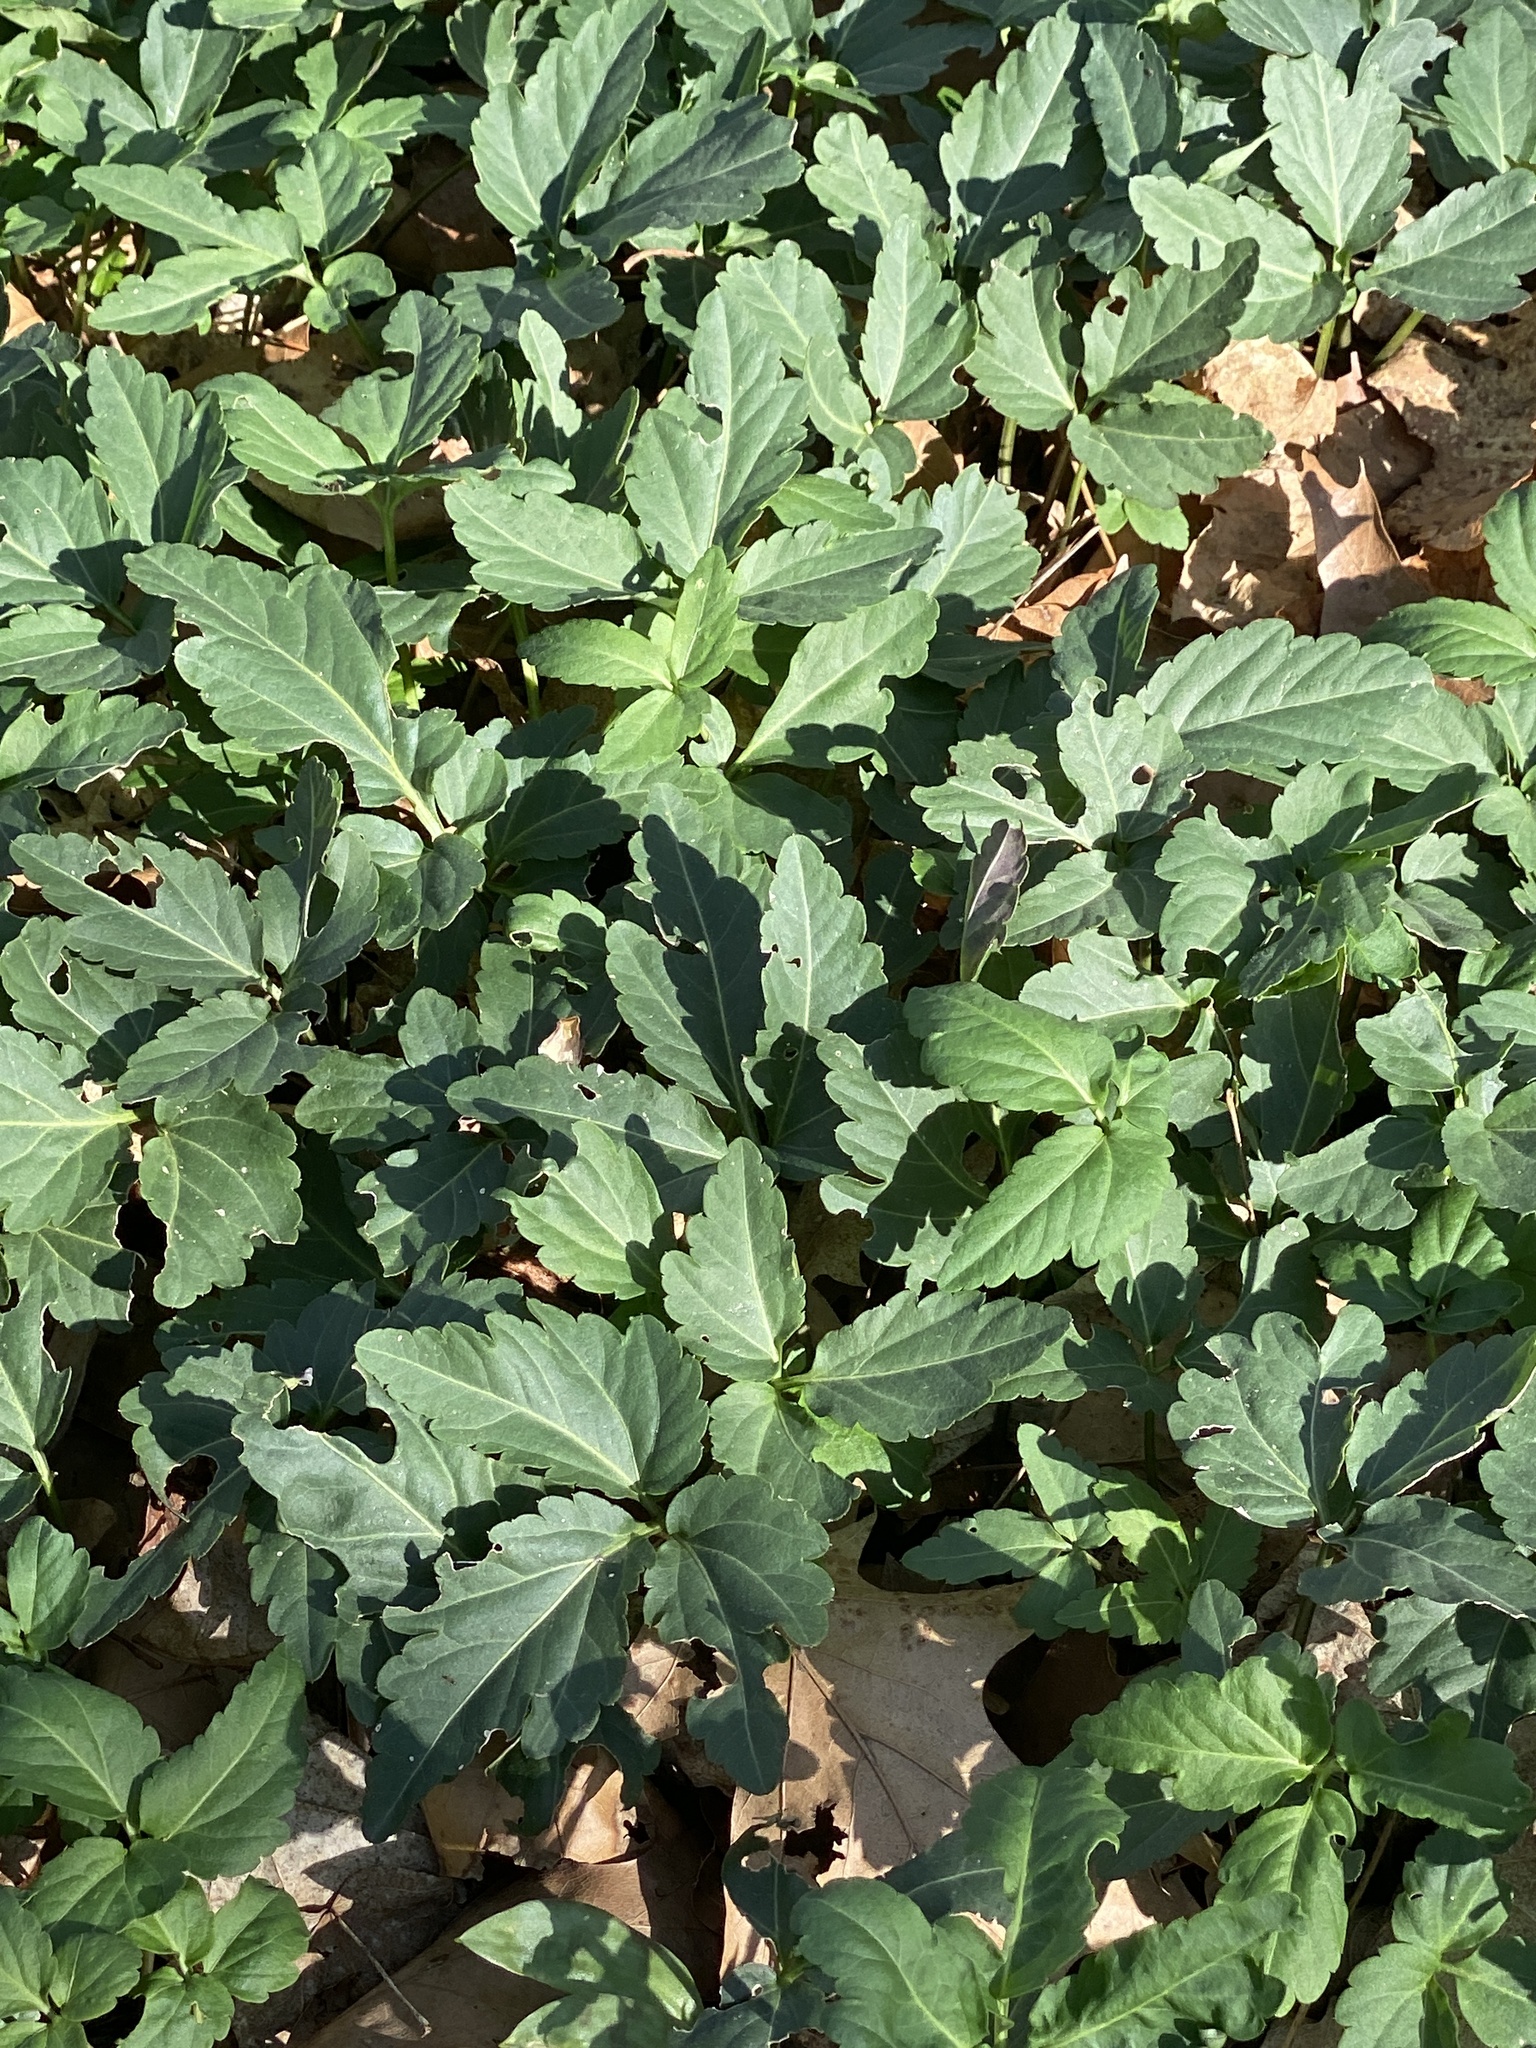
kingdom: Plantae
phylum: Tracheophyta
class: Magnoliopsida
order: Brassicales
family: Brassicaceae
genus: Cardamine
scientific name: Cardamine diphylla
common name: Broad-leaved toothwort
